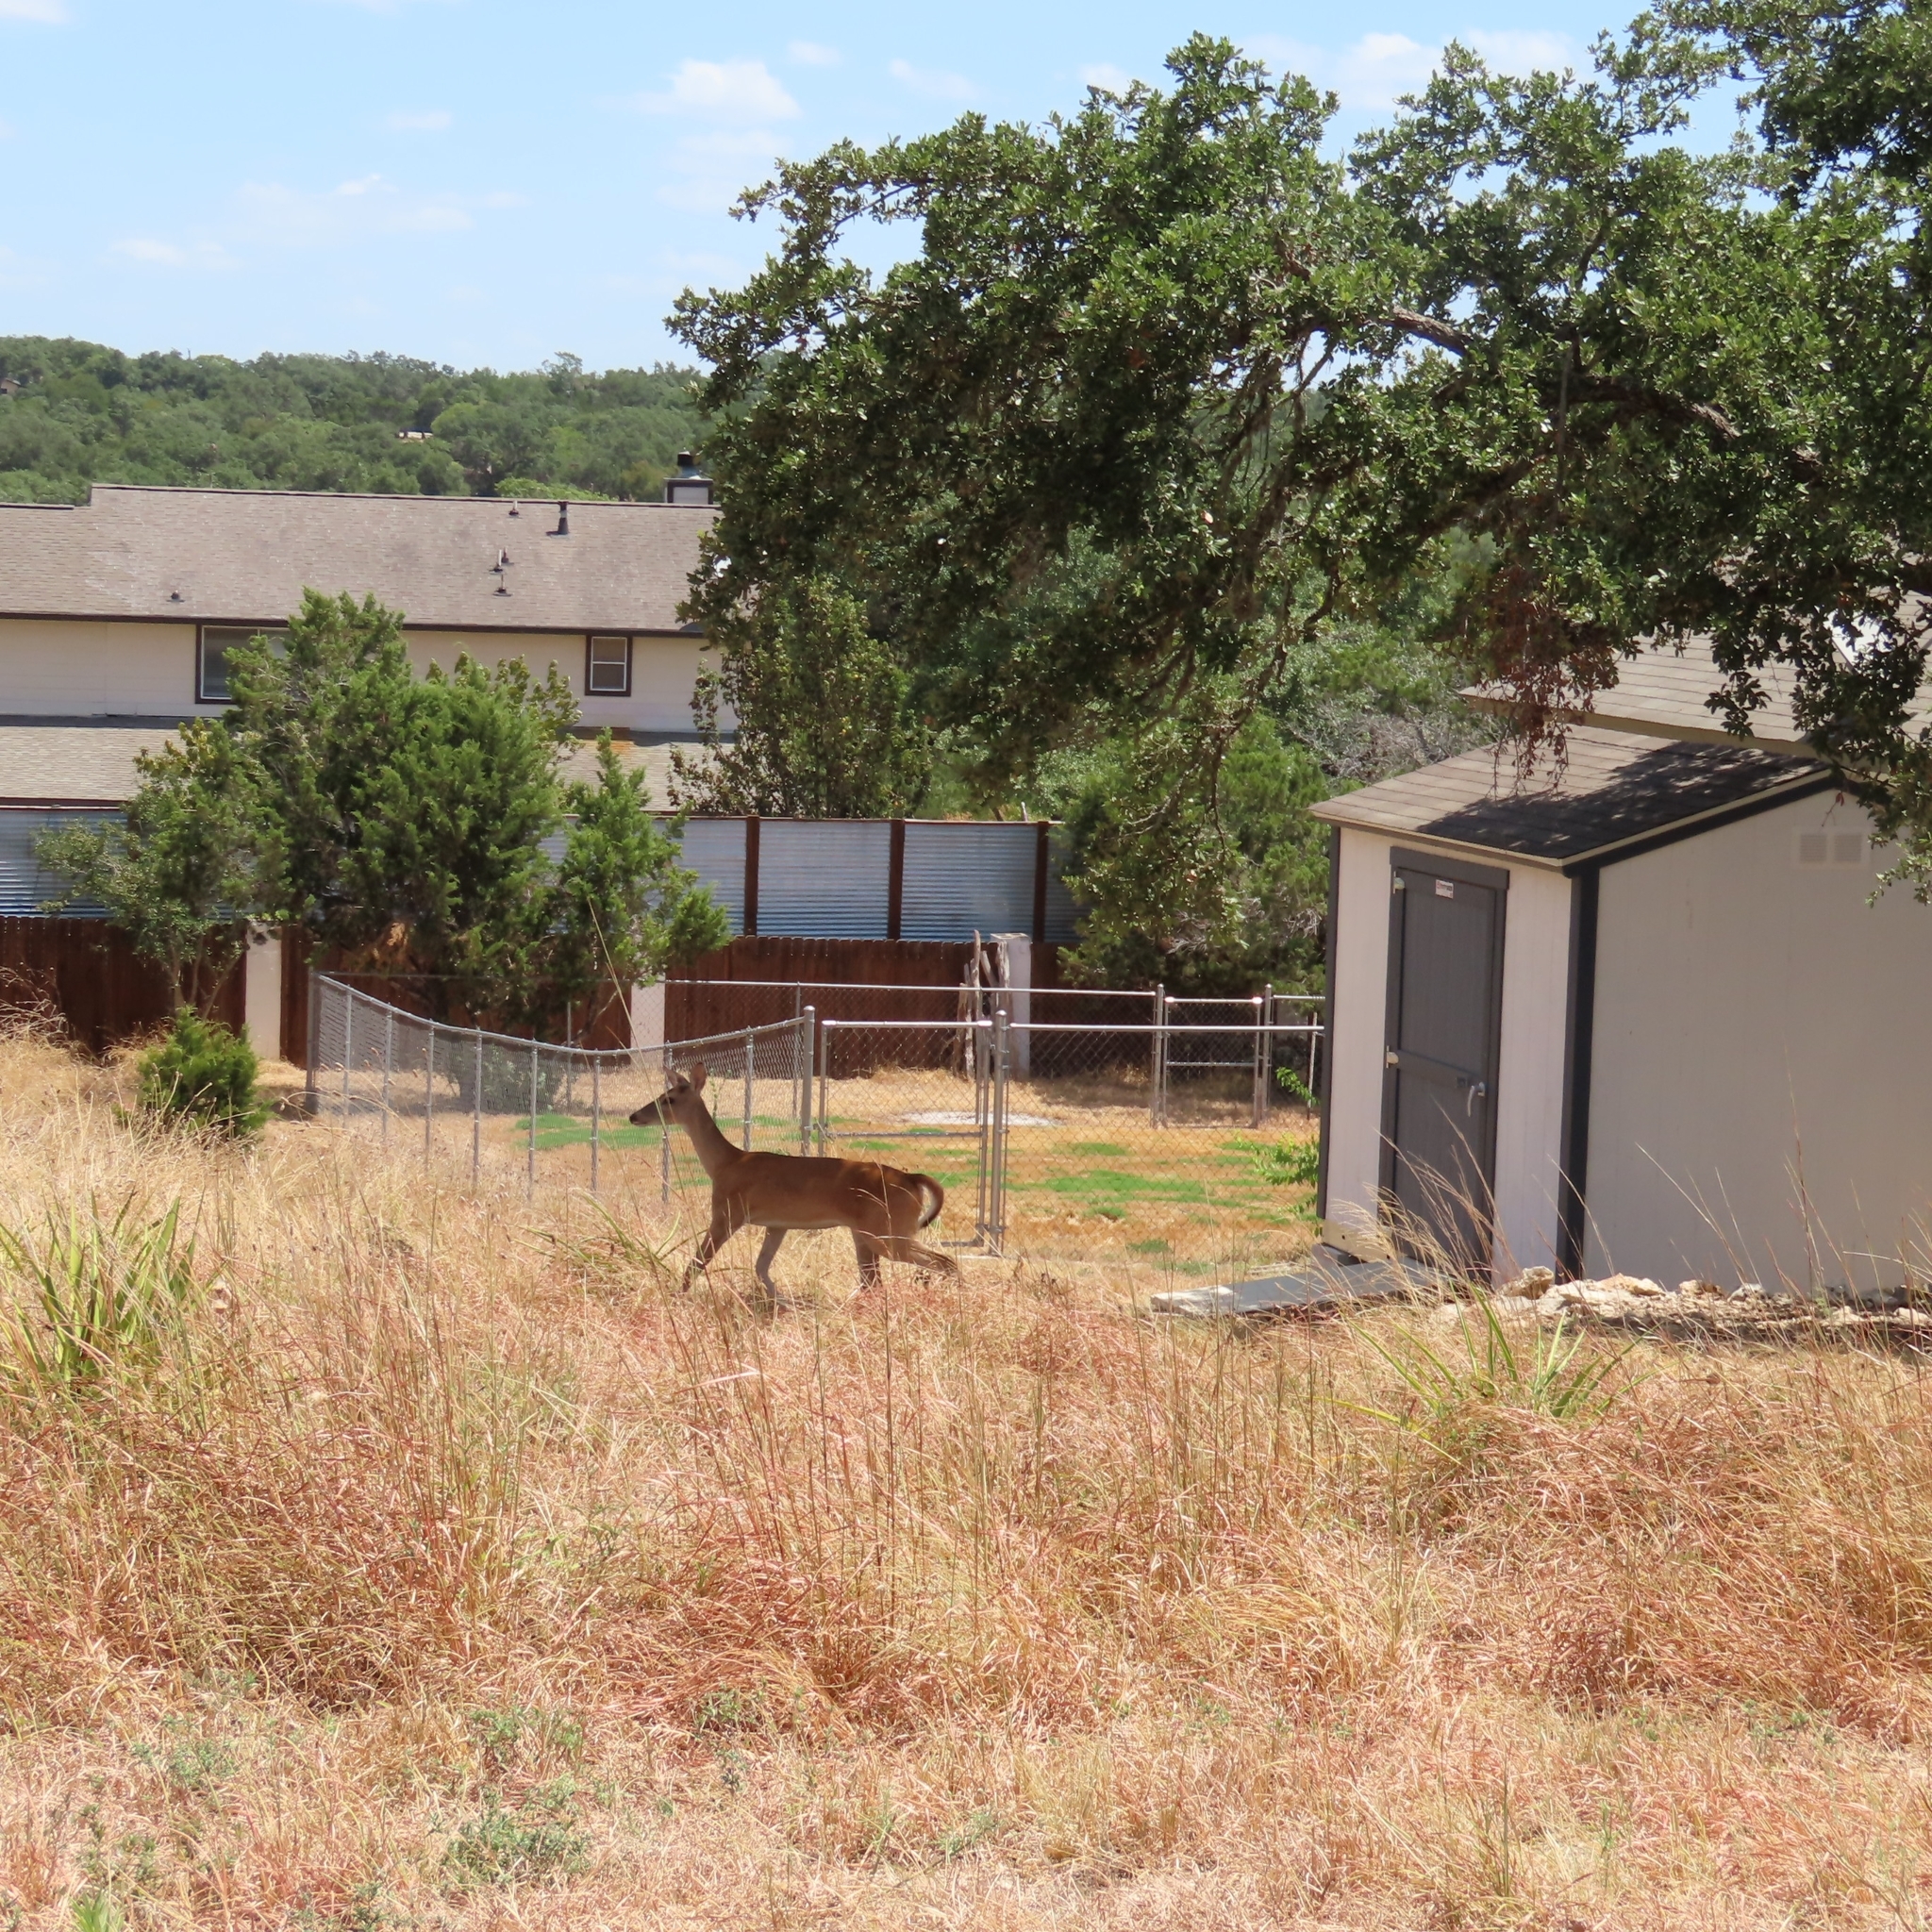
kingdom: Animalia
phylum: Chordata
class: Mammalia
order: Artiodactyla
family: Cervidae
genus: Odocoileus
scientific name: Odocoileus virginianus
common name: White-tailed deer
